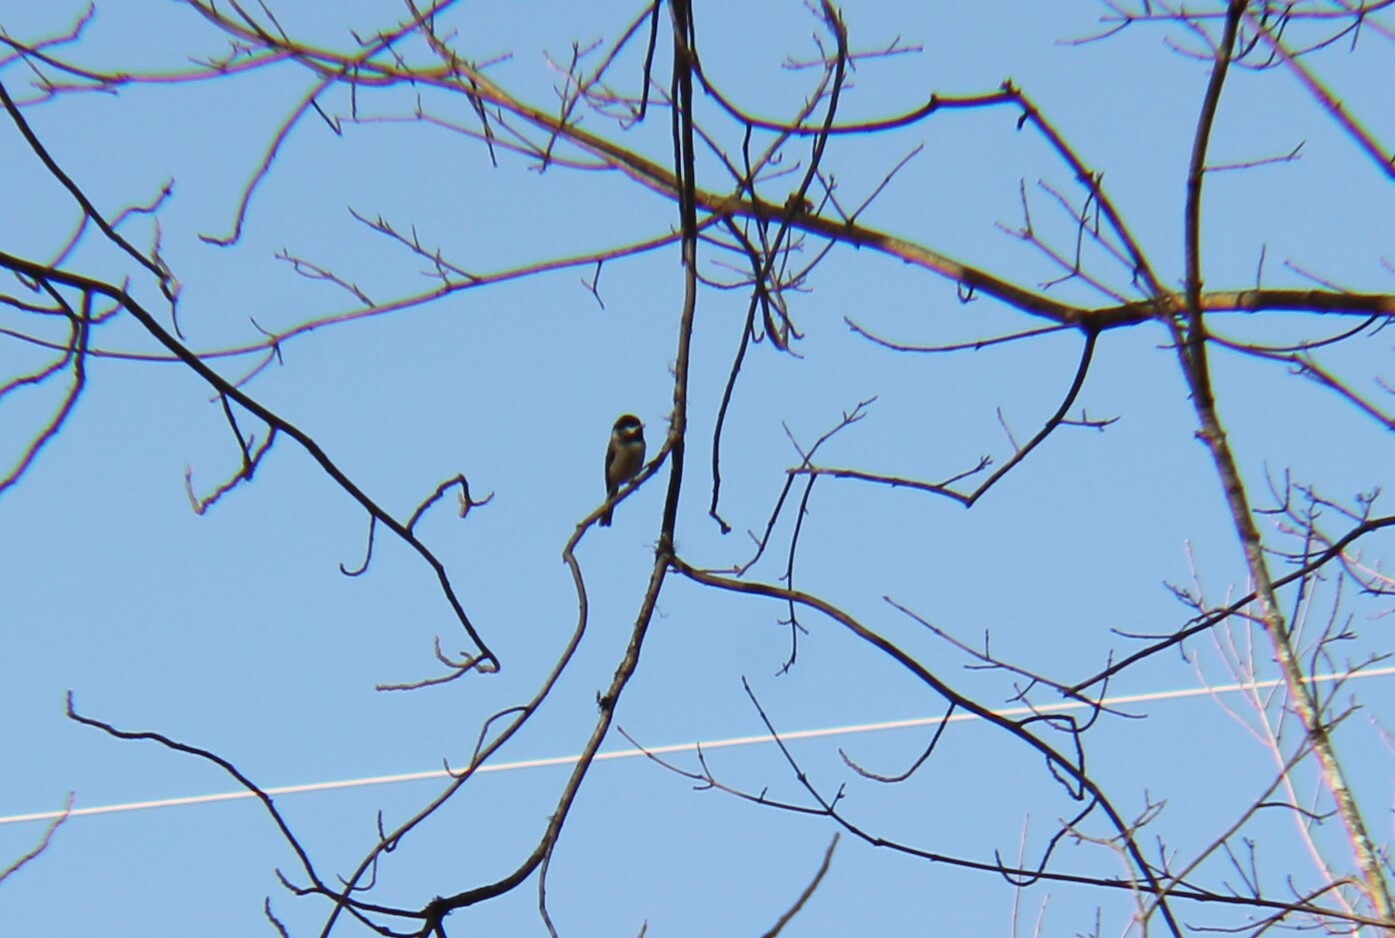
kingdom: Animalia
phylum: Chordata
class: Aves
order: Passeriformes
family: Paridae
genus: Poecile
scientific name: Poecile carolinensis
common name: Carolina chickadee
